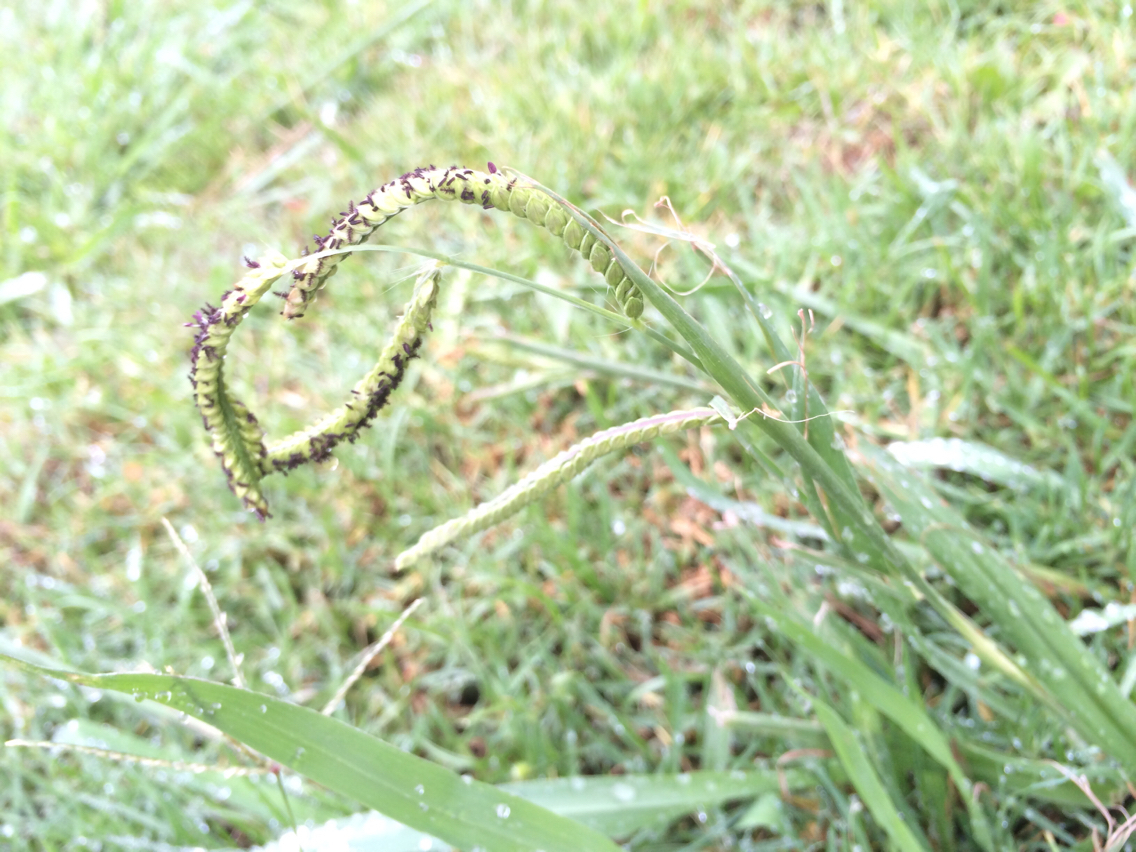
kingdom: Plantae
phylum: Tracheophyta
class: Liliopsida
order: Poales
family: Poaceae
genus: Paspalum
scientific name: Paspalum dilatatum
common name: Dallisgrass
